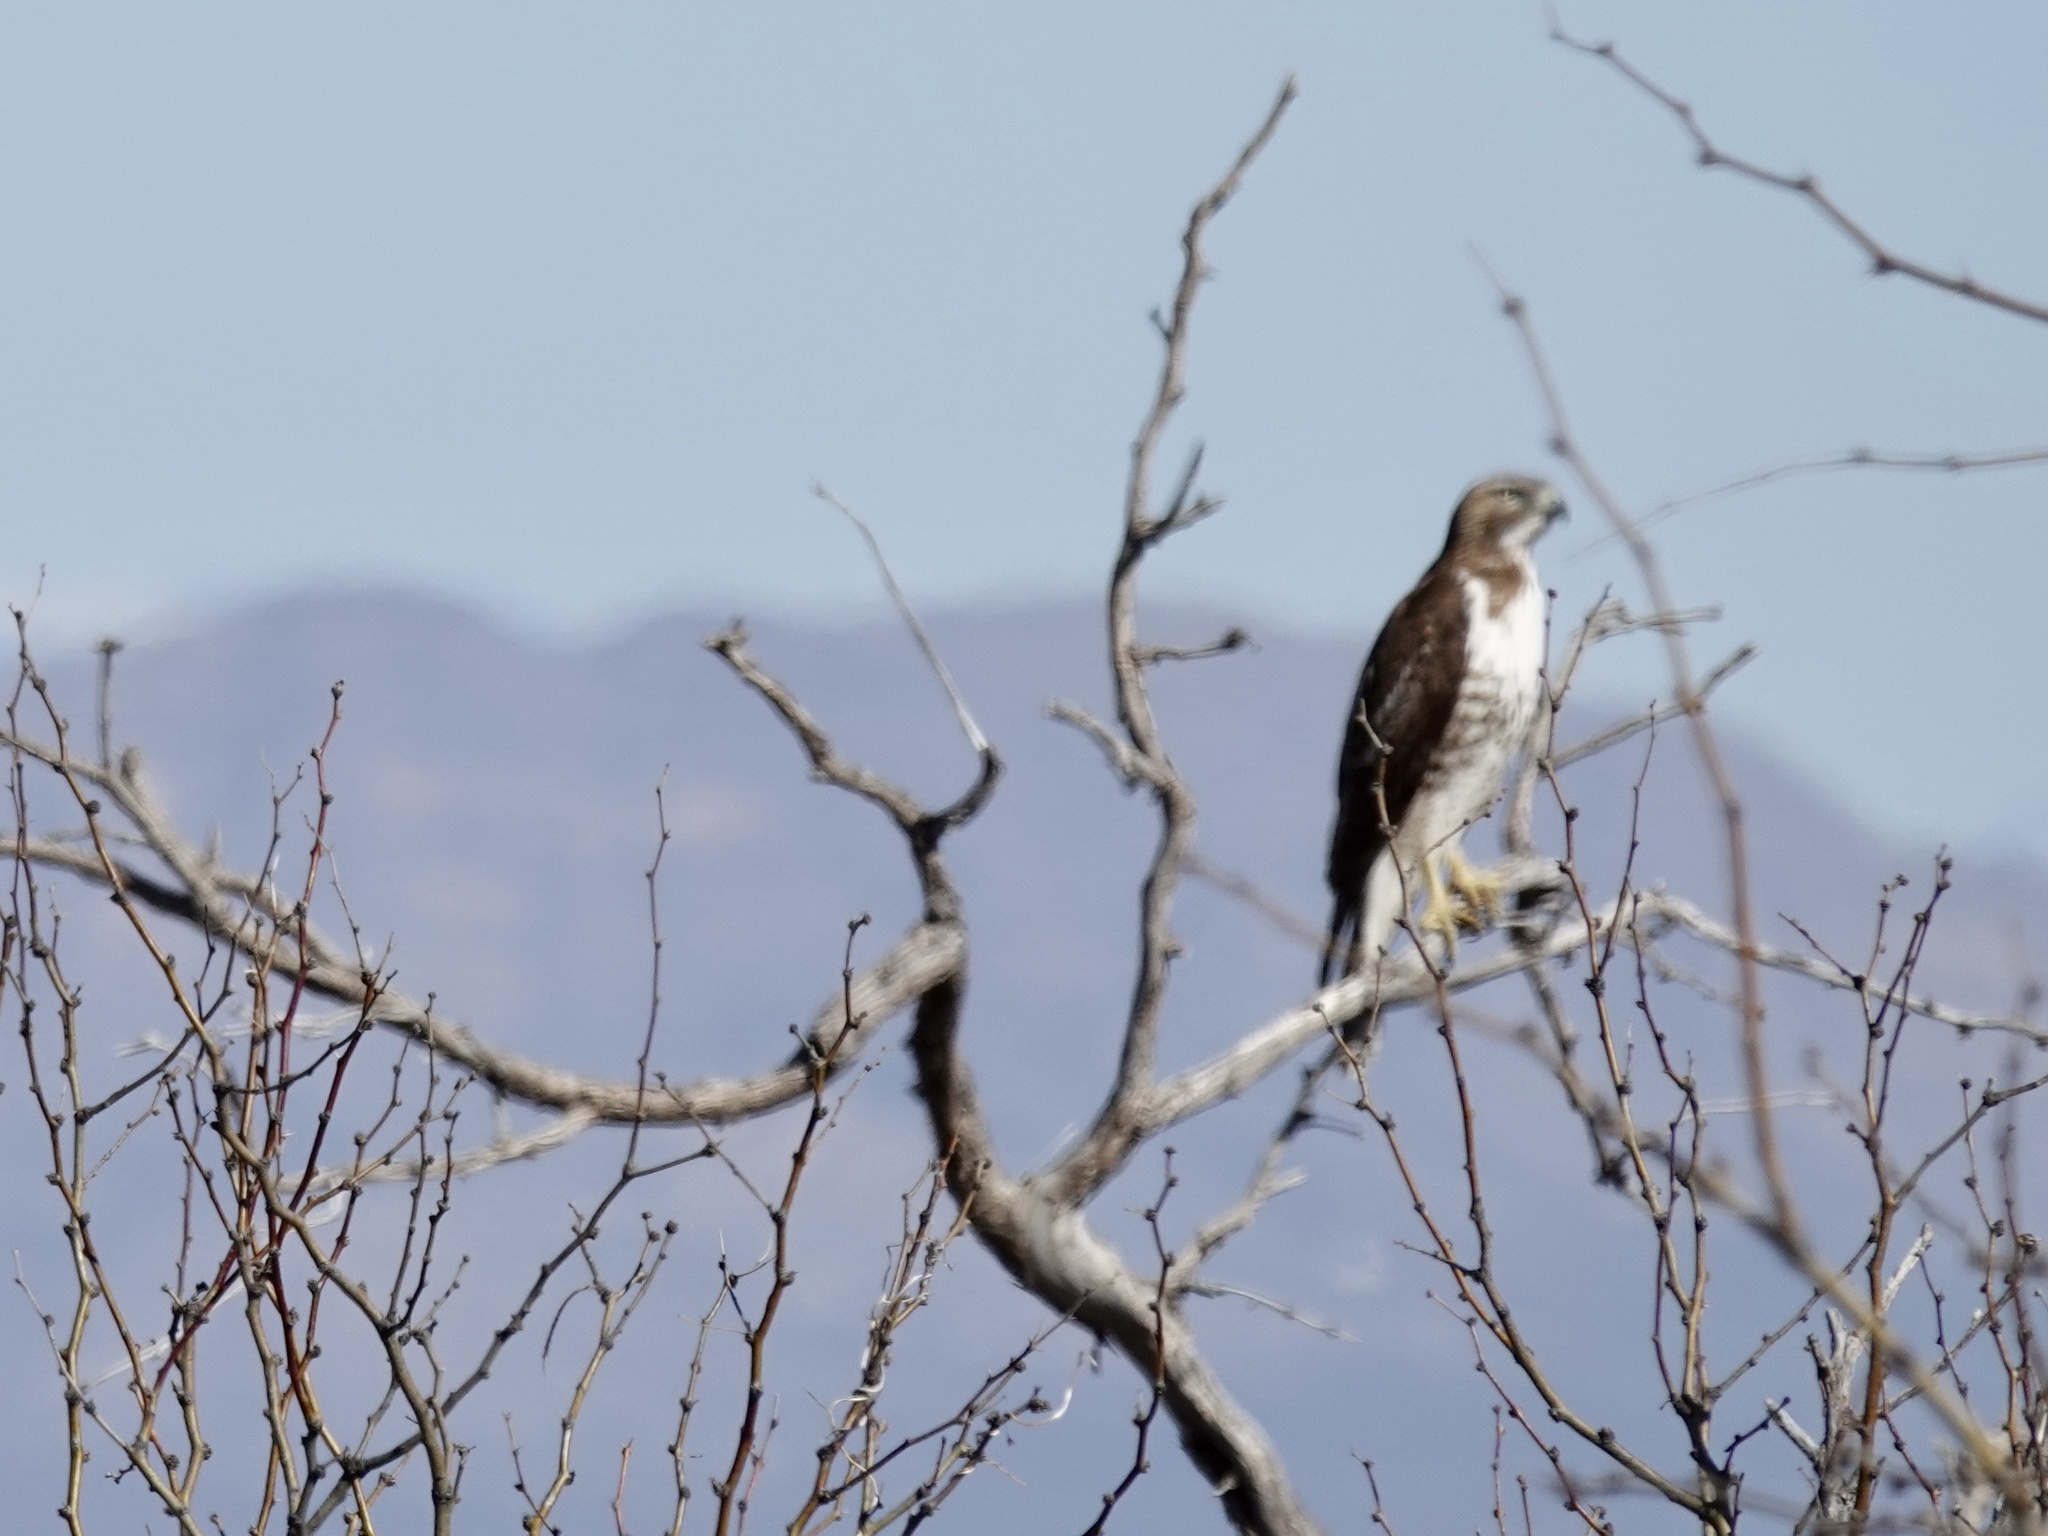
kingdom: Animalia
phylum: Chordata
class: Aves
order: Accipitriformes
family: Accipitridae
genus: Buteo
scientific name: Buteo jamaicensis
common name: Red-tailed hawk
